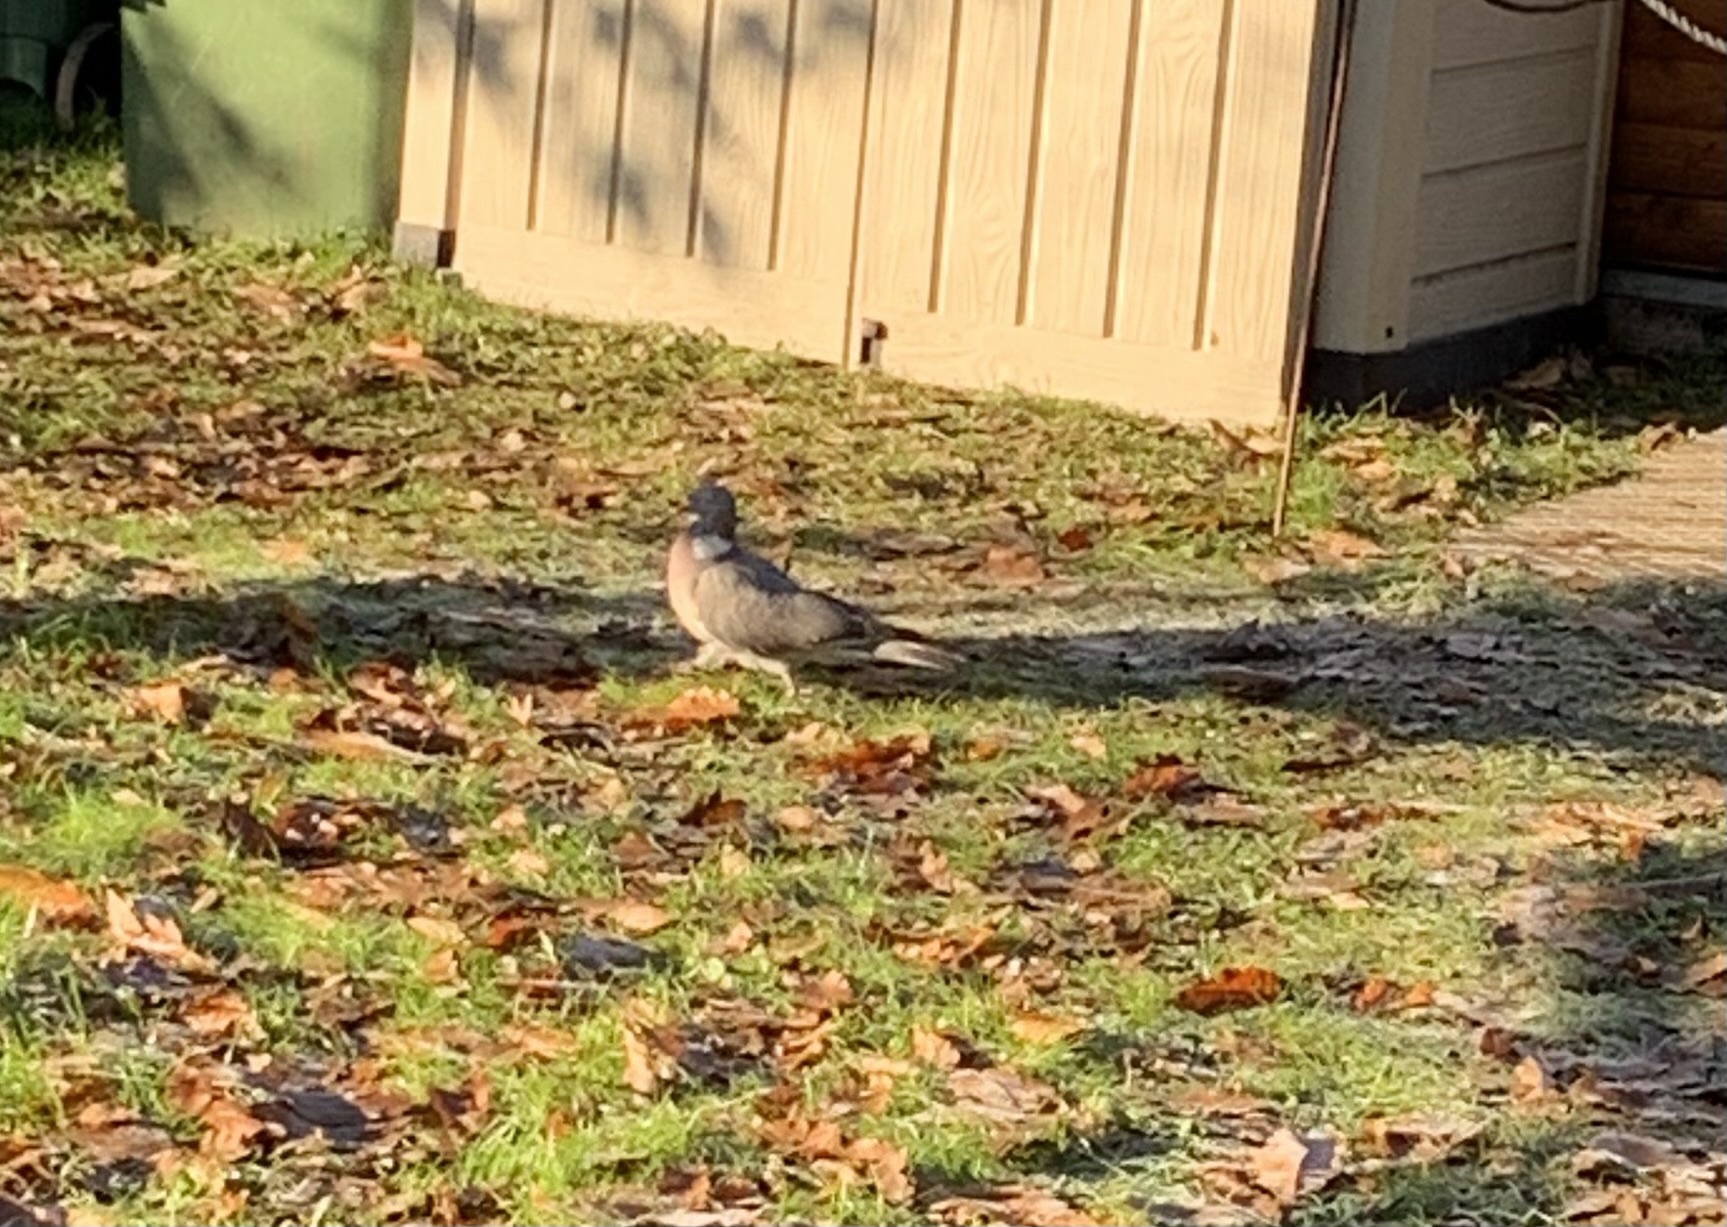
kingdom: Animalia
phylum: Chordata
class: Aves
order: Columbiformes
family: Columbidae
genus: Columba
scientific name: Columba palumbus
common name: Common wood pigeon
